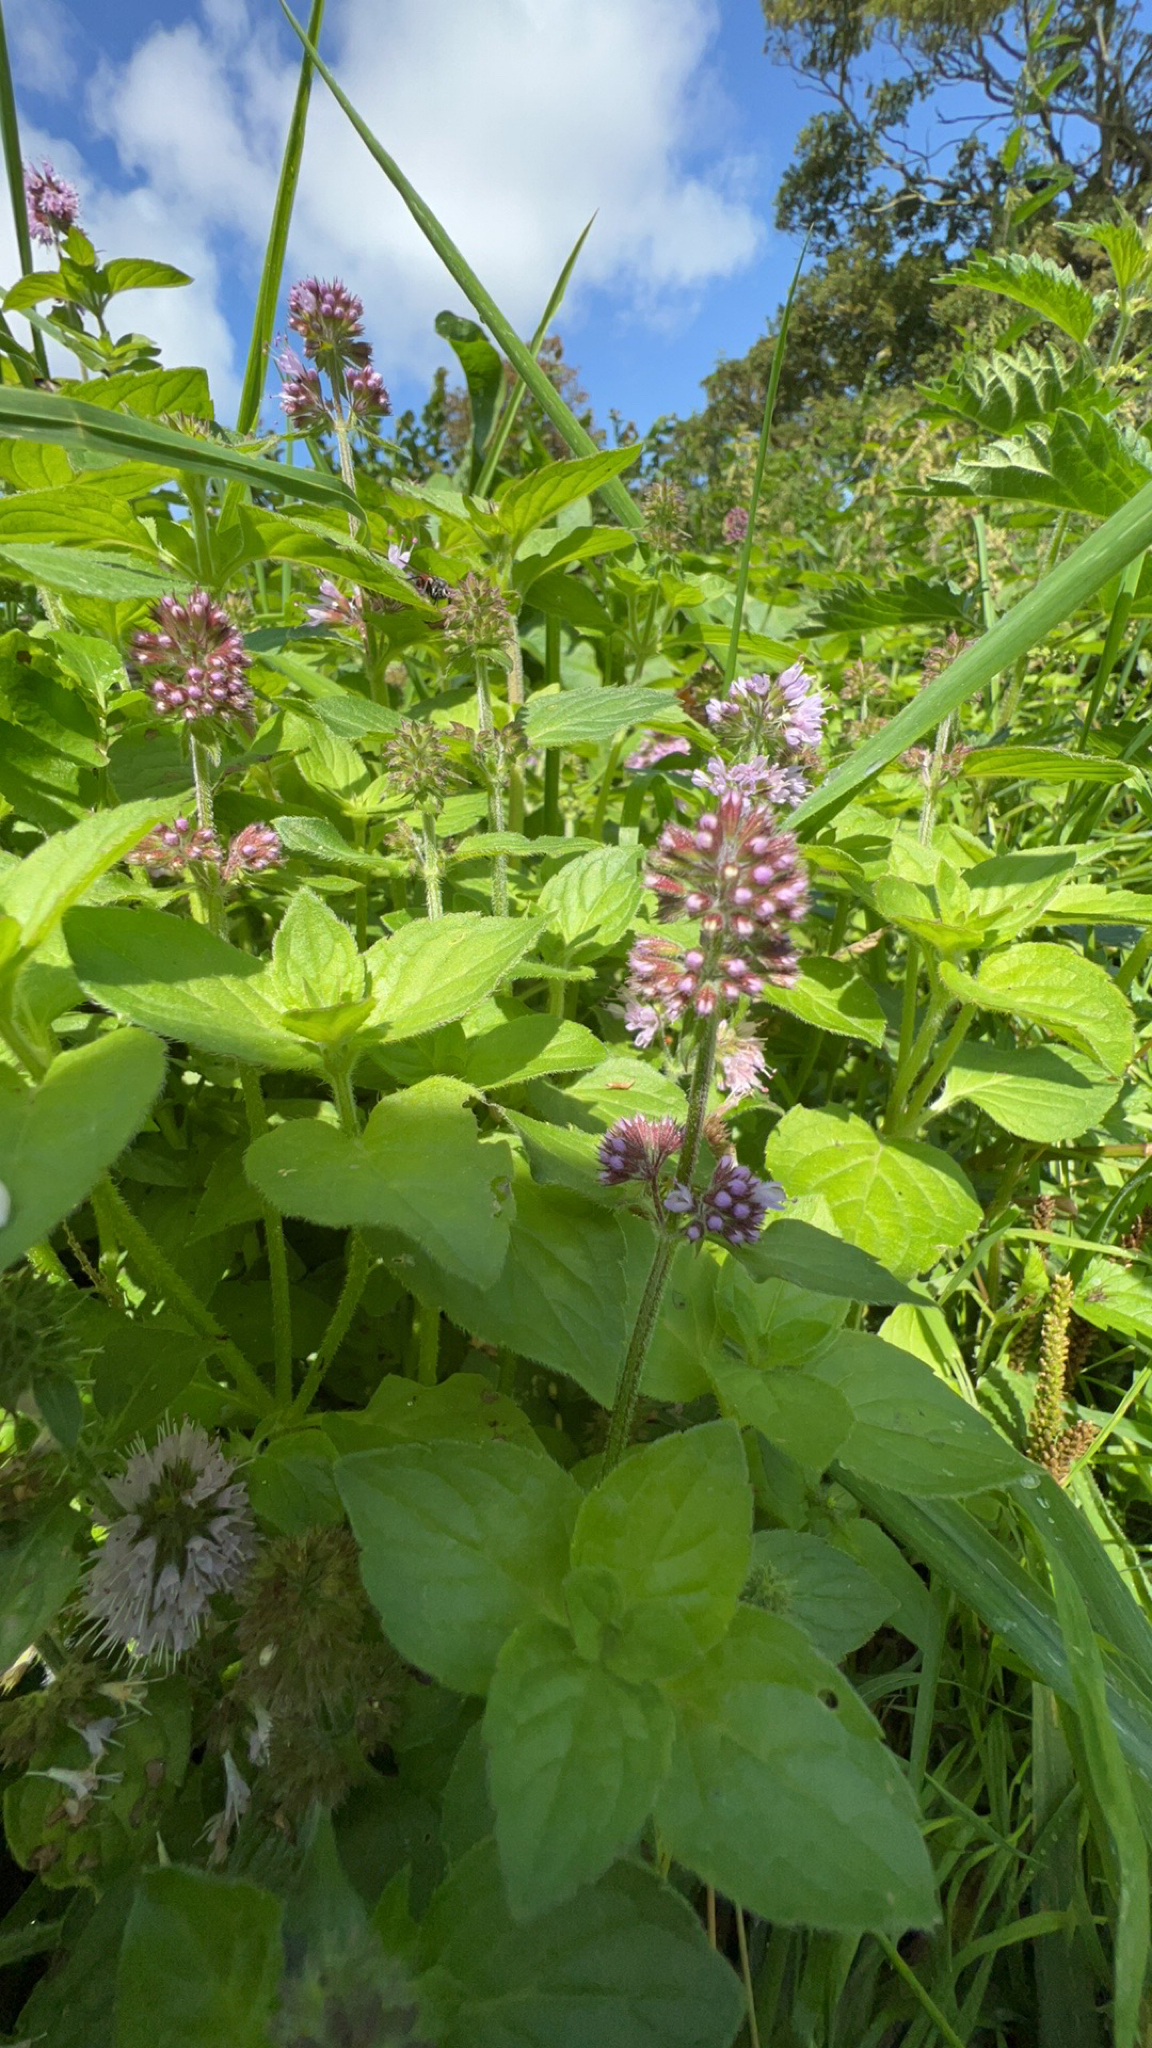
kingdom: Plantae
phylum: Tracheophyta
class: Magnoliopsida
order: Lamiales
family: Lamiaceae
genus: Mentha
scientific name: Mentha aquatica
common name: Water mint
